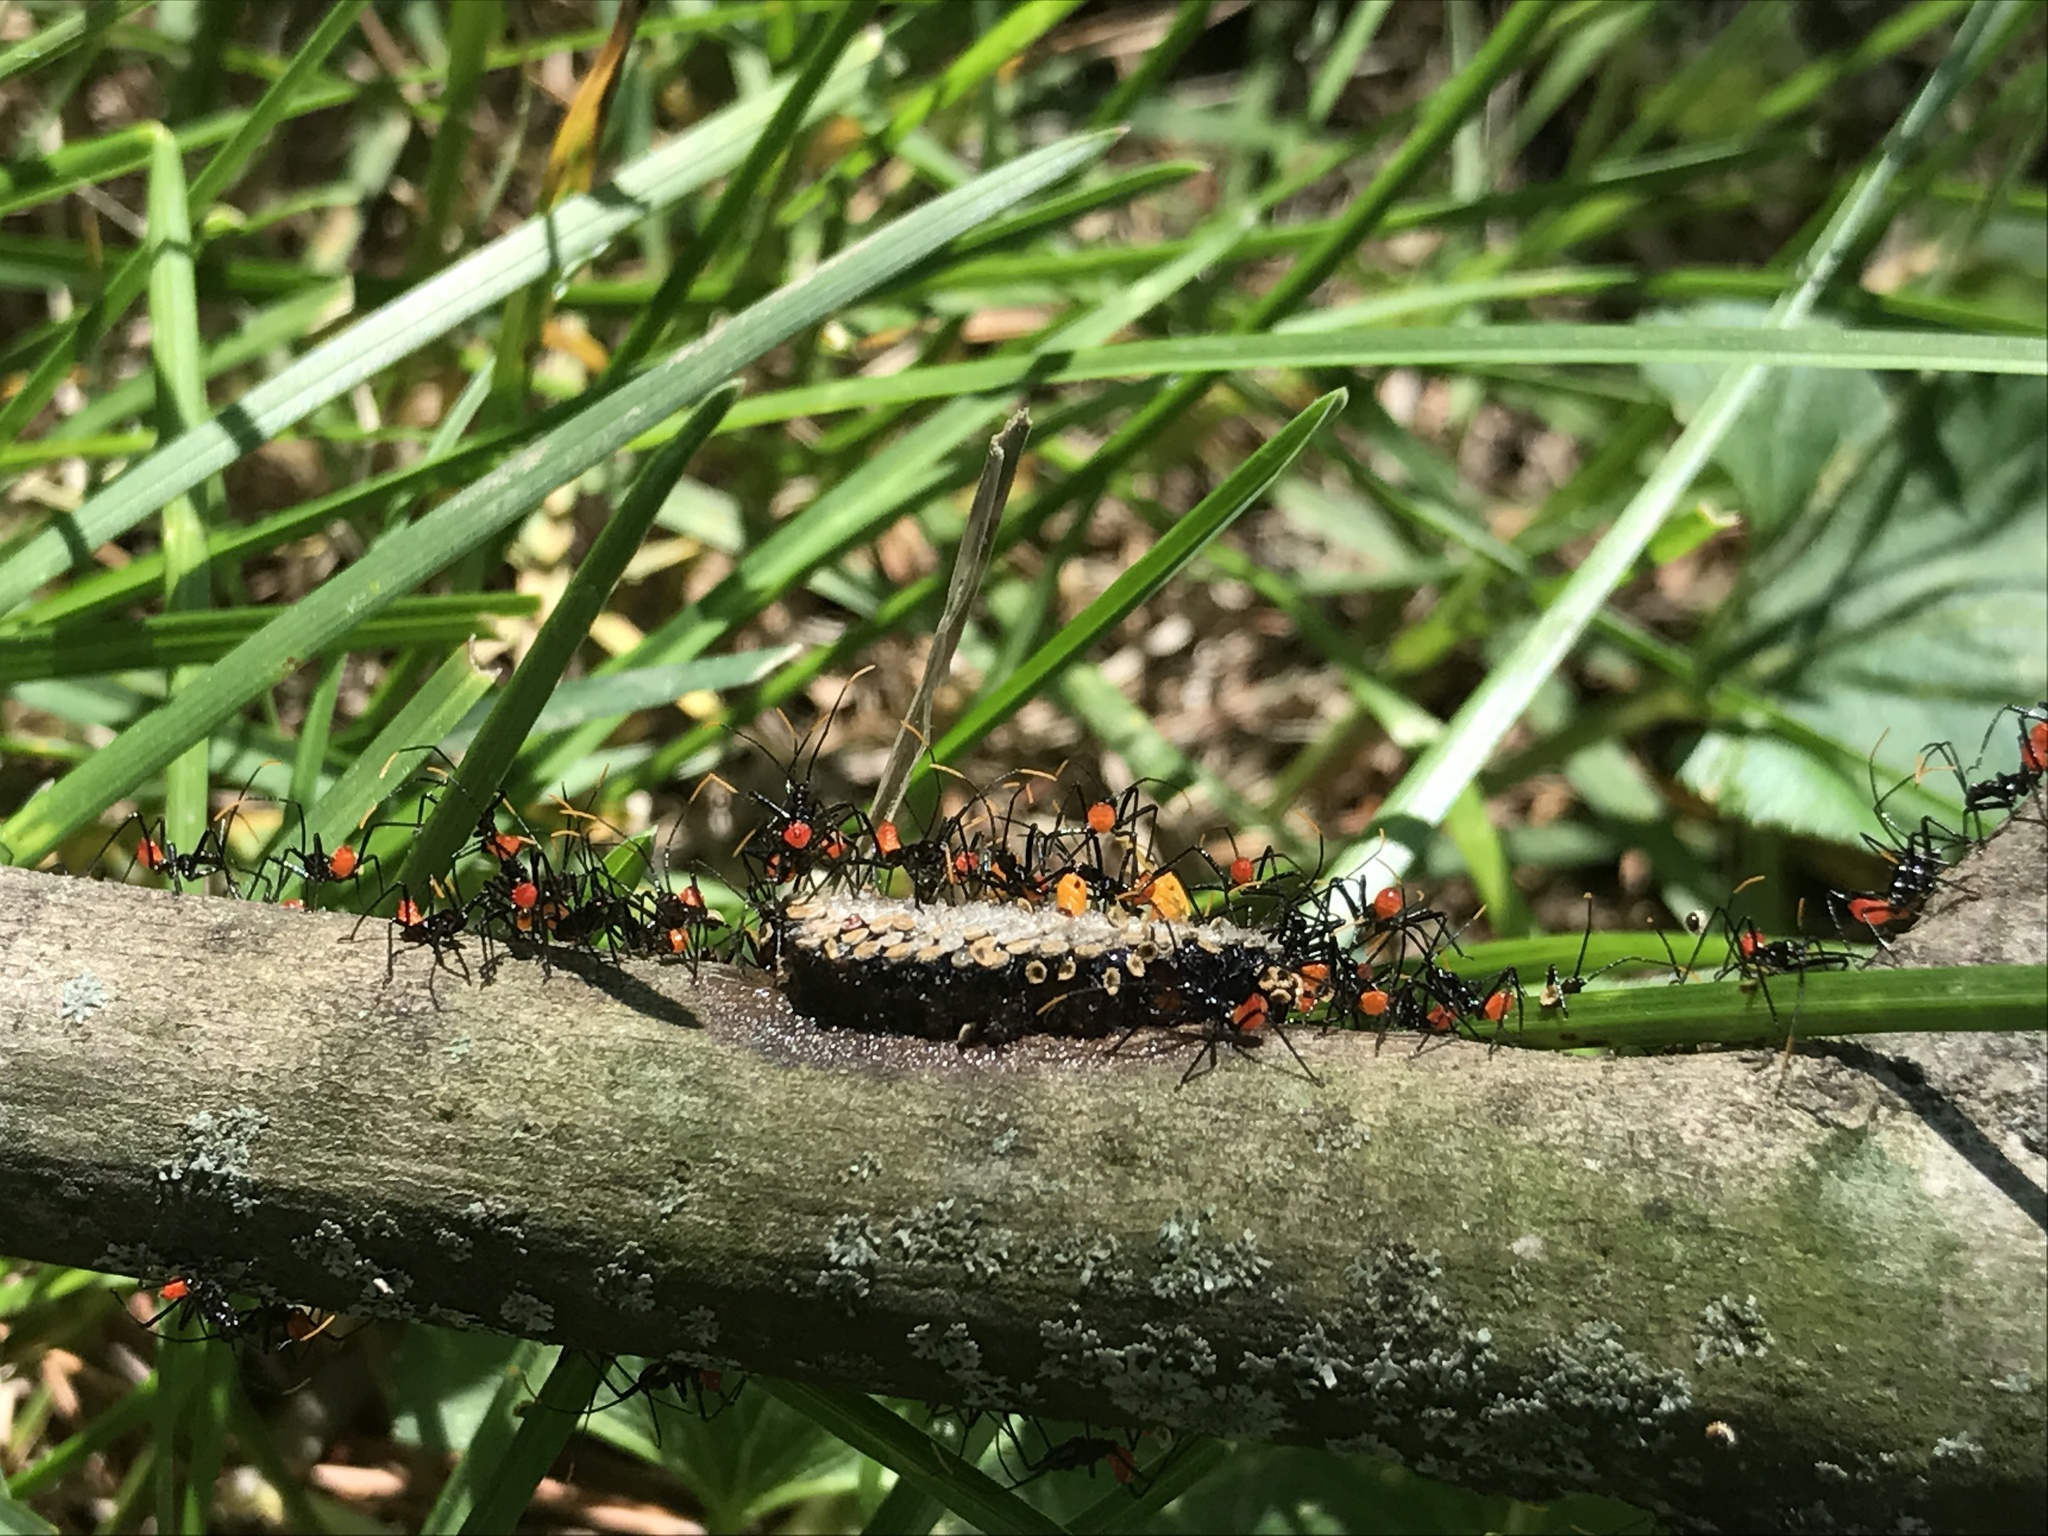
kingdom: Animalia
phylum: Arthropoda
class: Insecta
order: Hemiptera
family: Reduviidae
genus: Arilus
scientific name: Arilus cristatus
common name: North american wheel bug
